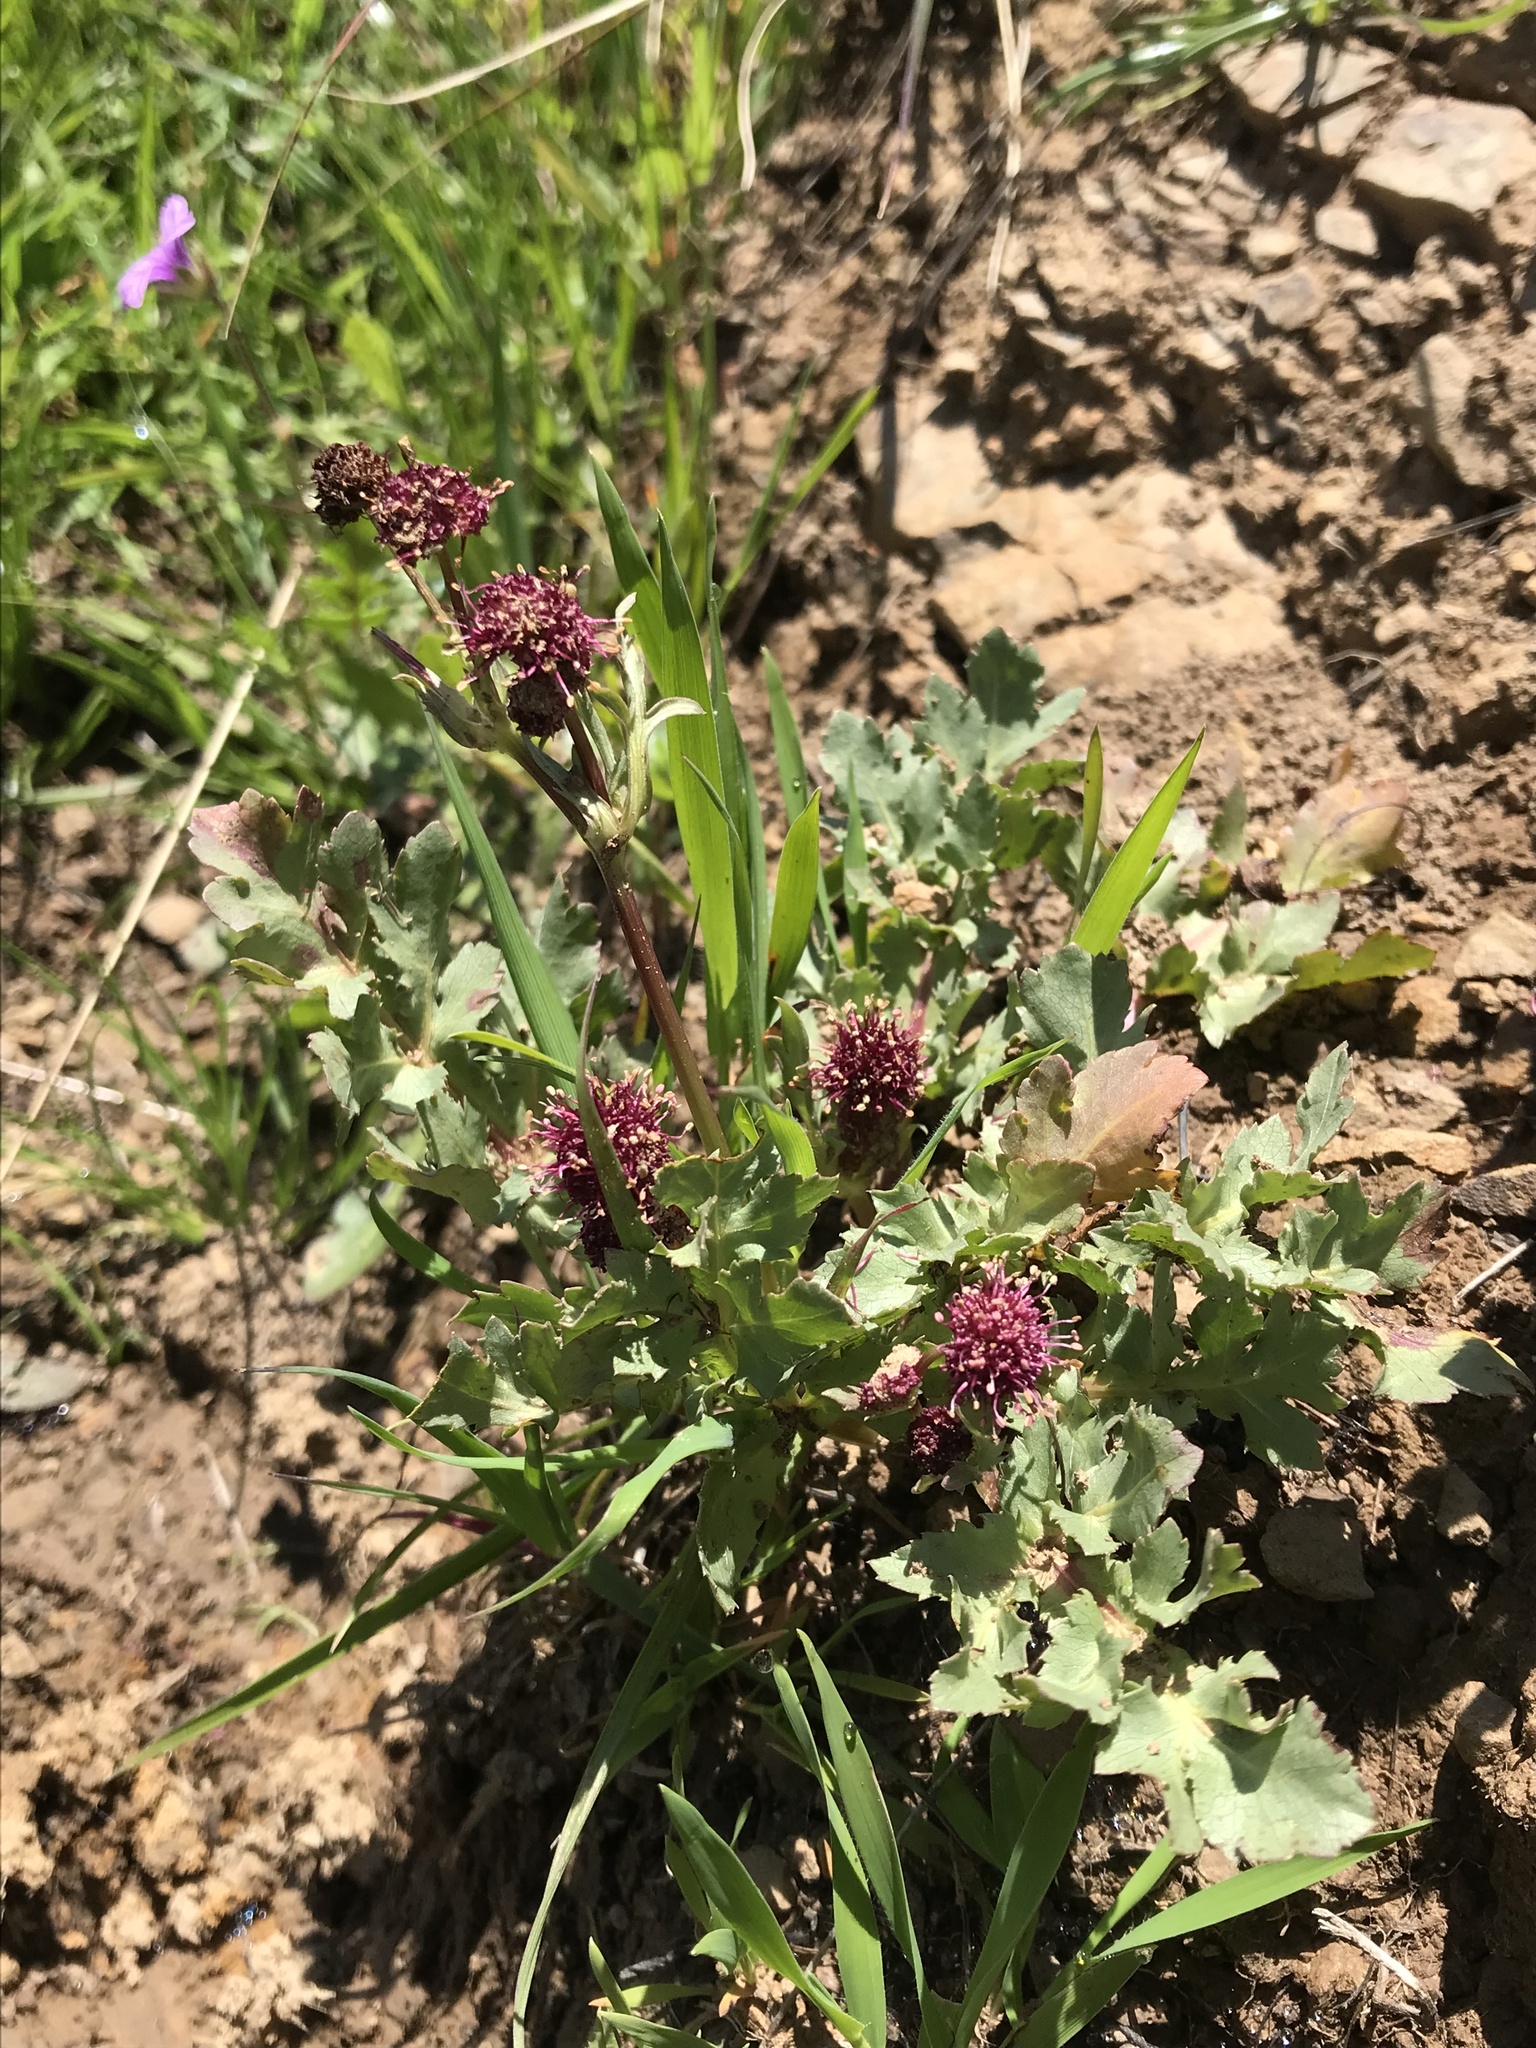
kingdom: Plantae
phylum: Tracheophyta
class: Magnoliopsida
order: Apiales
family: Apiaceae
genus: Sanicula
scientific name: Sanicula bipinnatifida
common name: Shoe-buttons
